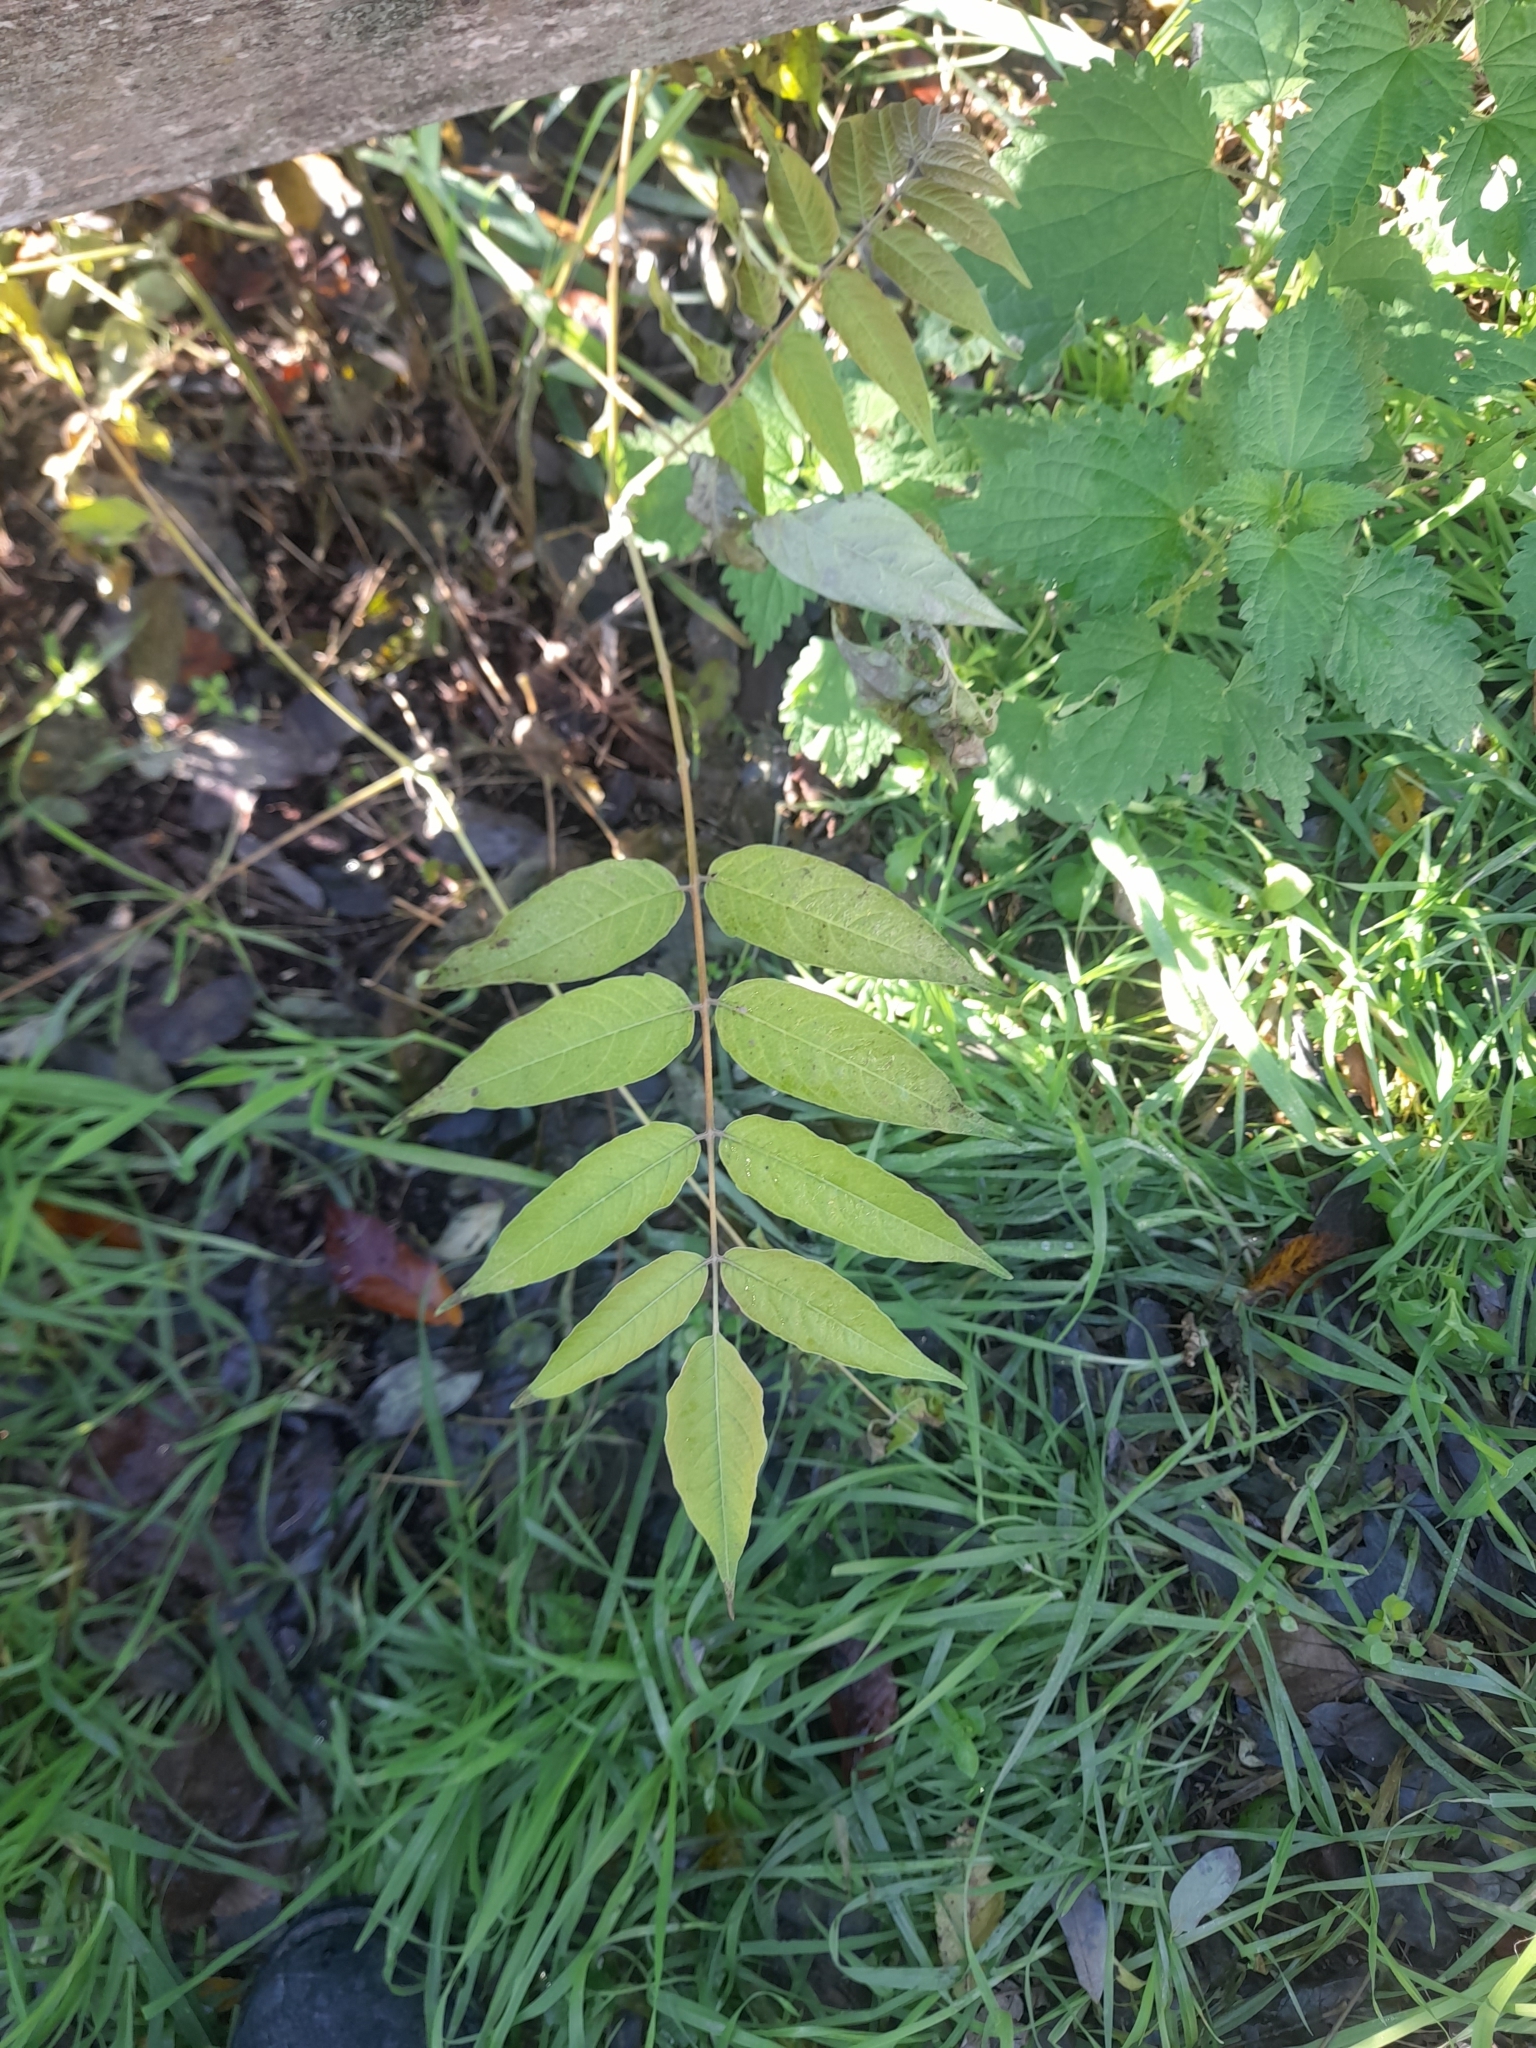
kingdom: Plantae
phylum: Tracheophyta
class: Magnoliopsida
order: Sapindales
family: Simaroubaceae
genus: Ailanthus
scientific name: Ailanthus altissima
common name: Tree-of-heaven
